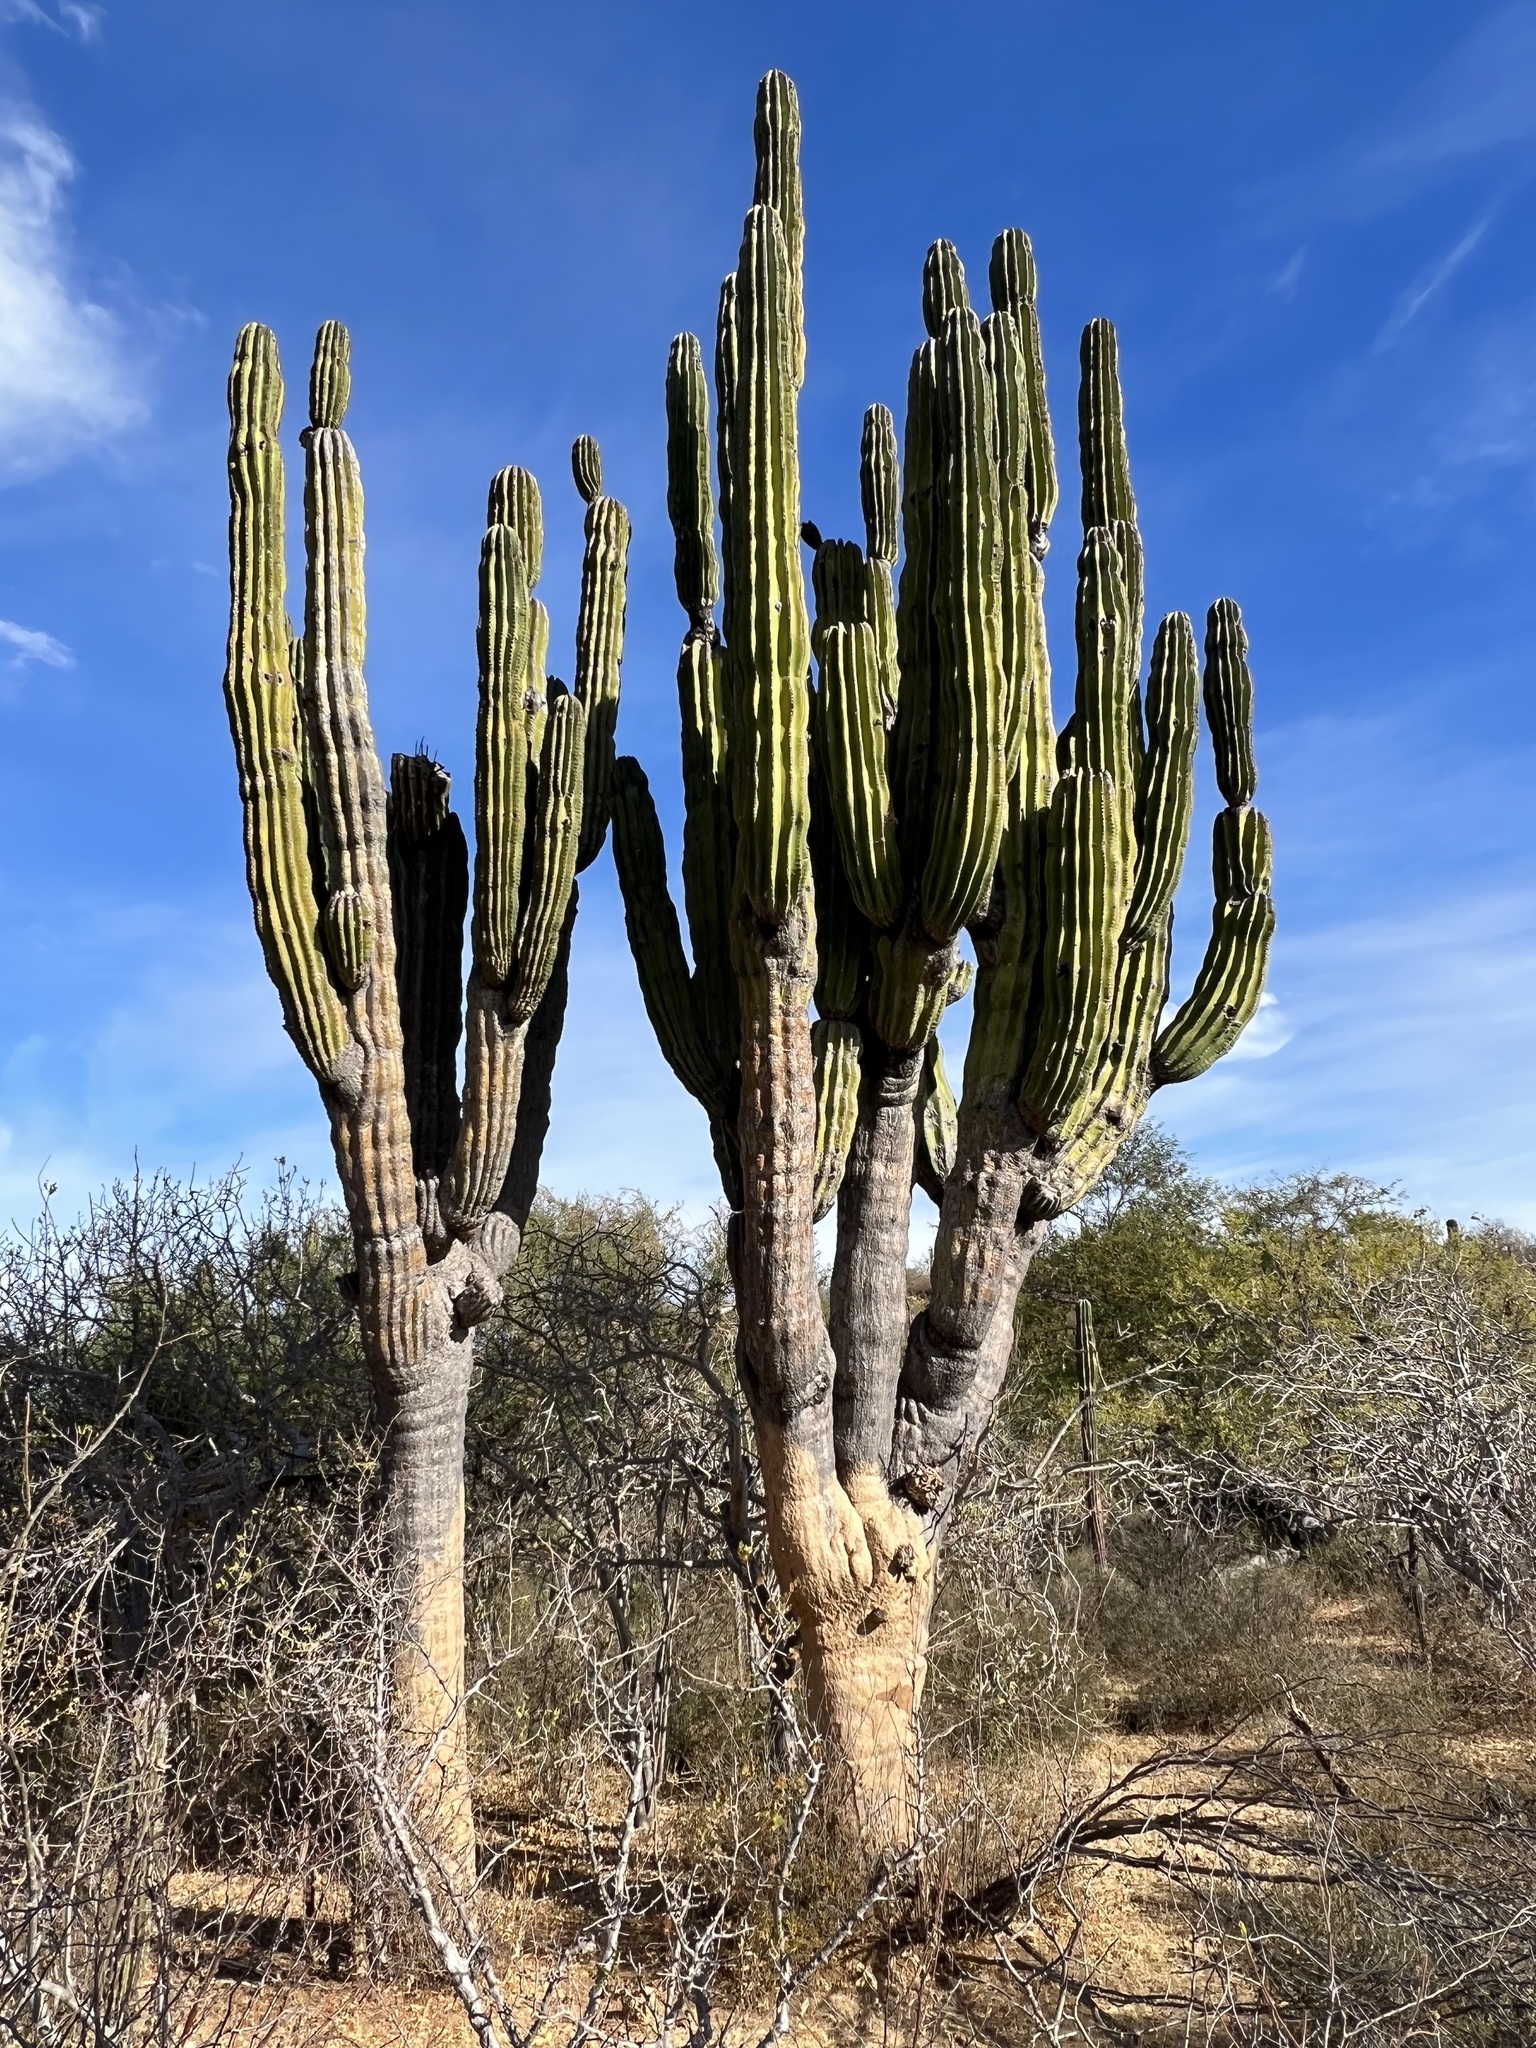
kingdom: Plantae
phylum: Tracheophyta
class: Magnoliopsida
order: Caryophyllales
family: Cactaceae
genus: Pachycereus
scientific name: Pachycereus pringlei
